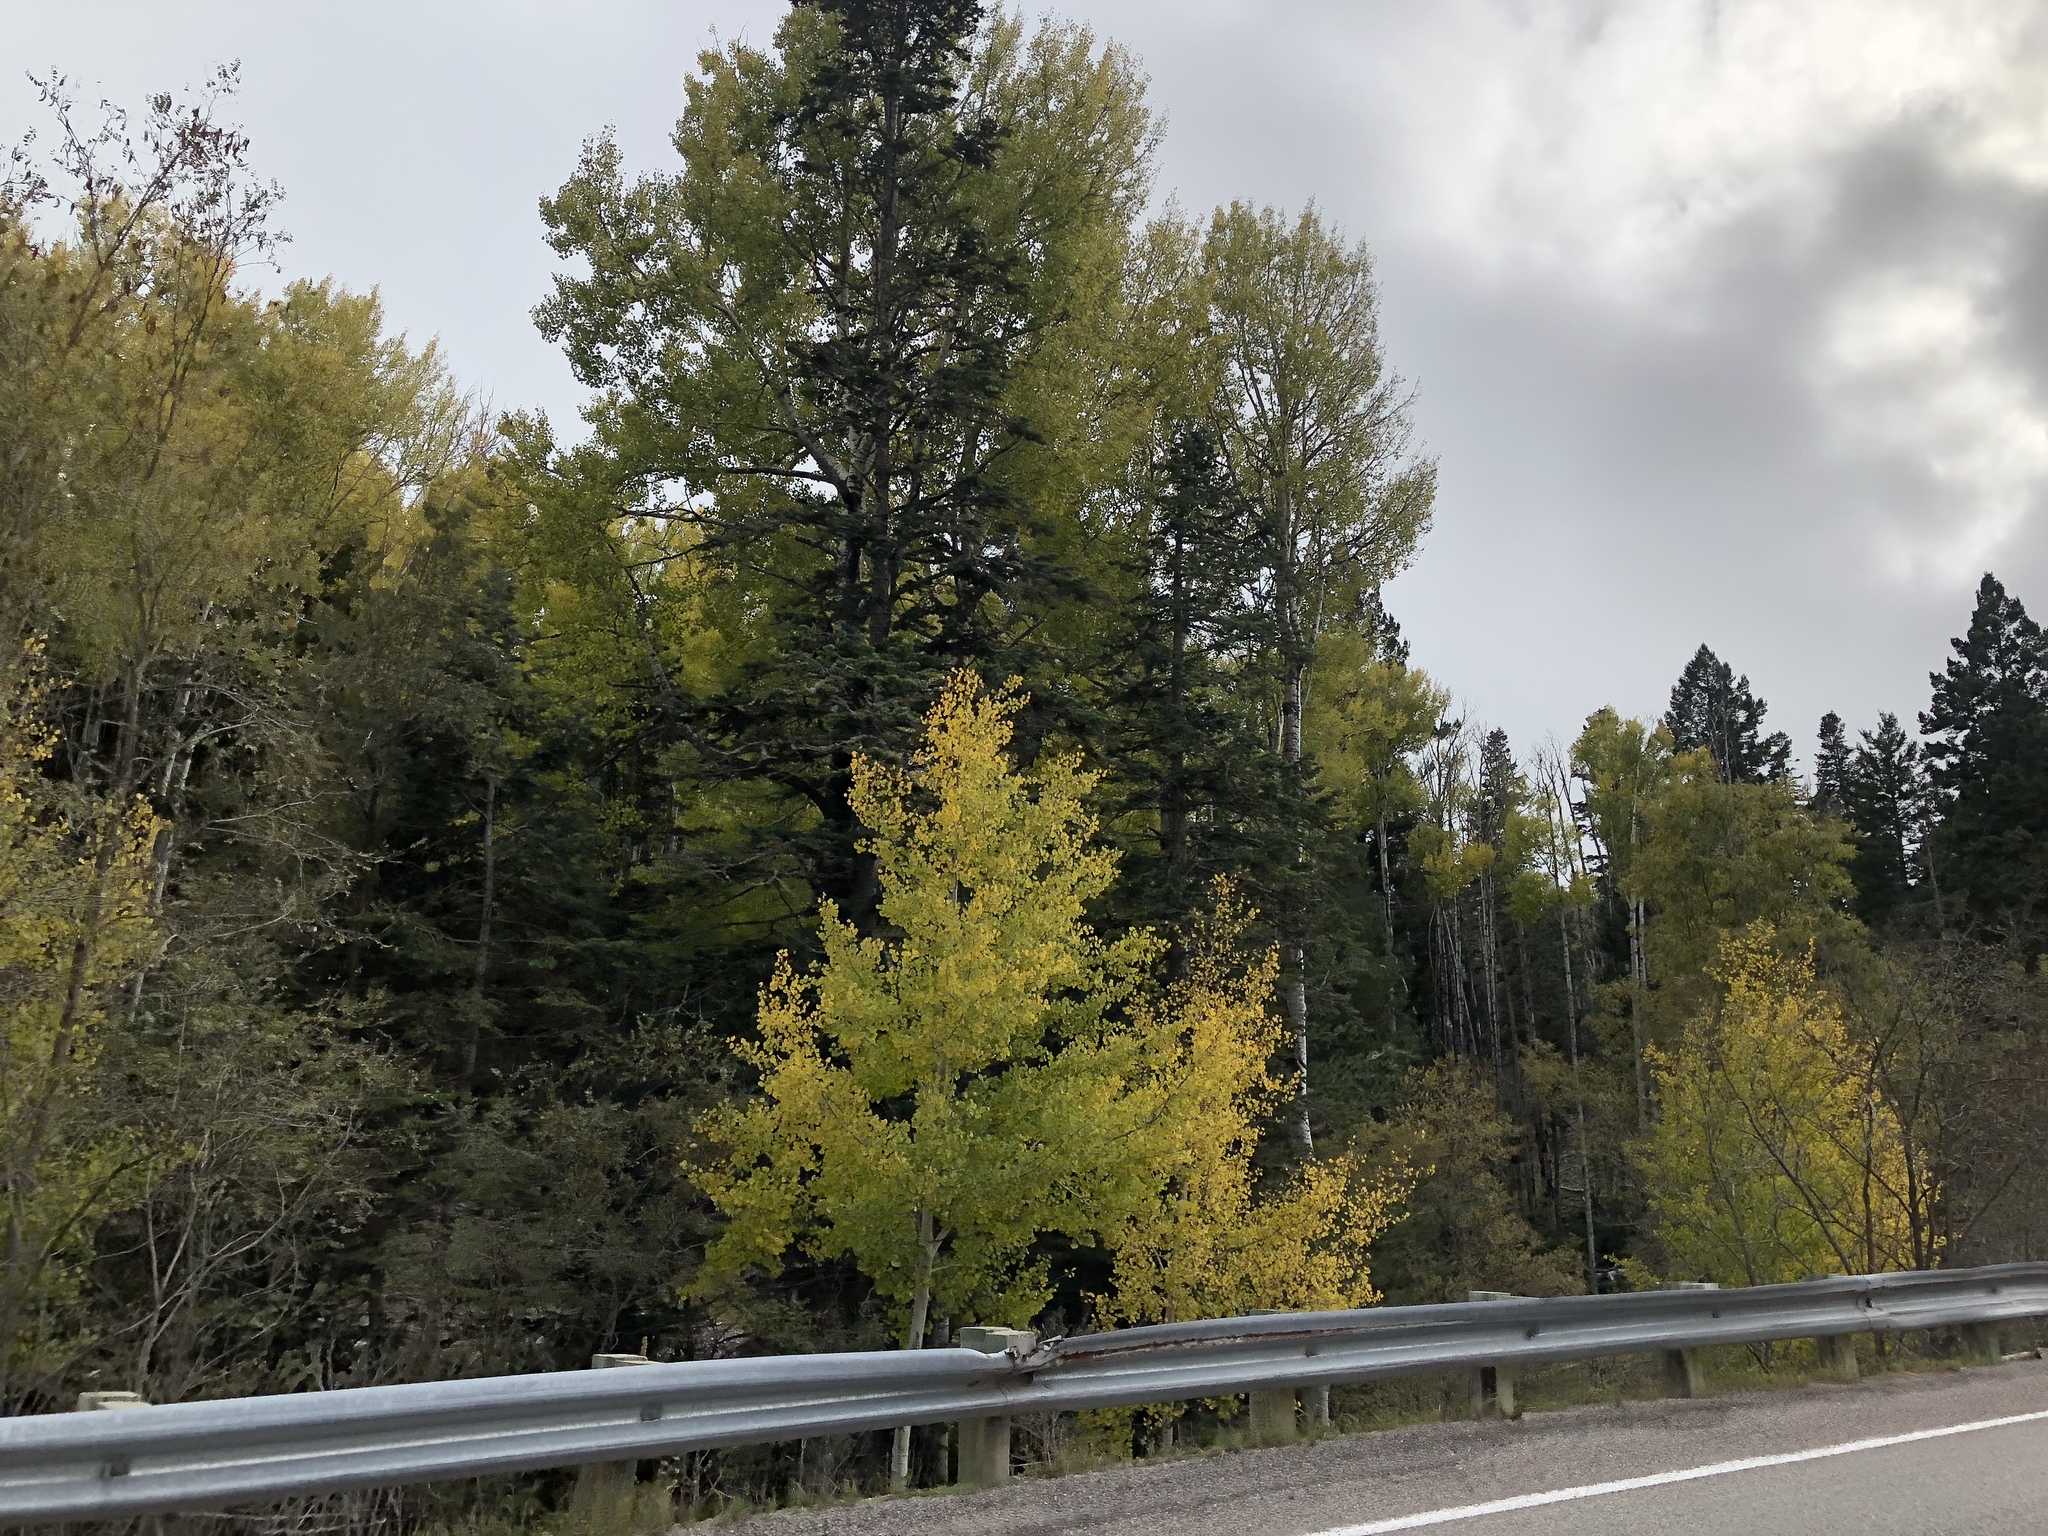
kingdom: Plantae
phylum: Tracheophyta
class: Magnoliopsida
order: Malpighiales
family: Salicaceae
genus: Populus
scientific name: Populus tremuloides
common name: Quaking aspen
